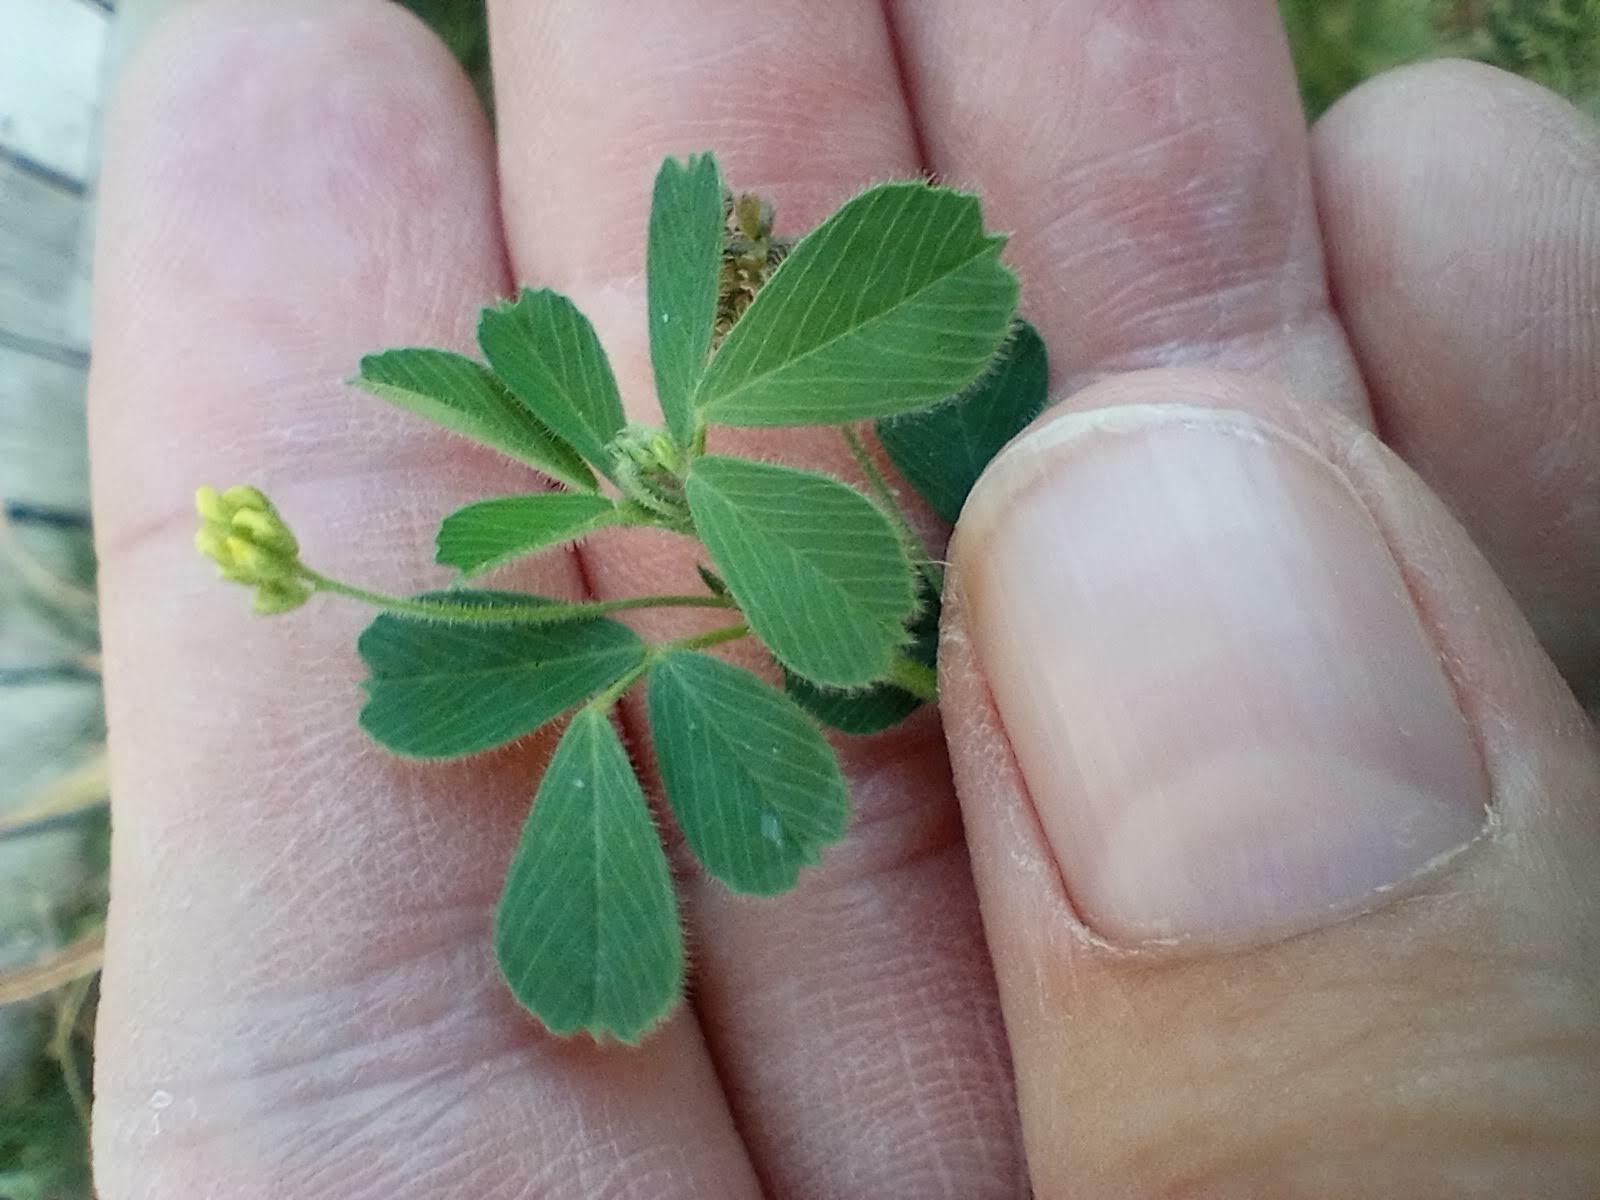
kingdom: Plantae
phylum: Tracheophyta
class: Magnoliopsida
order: Fabales
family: Fabaceae
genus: Medicago
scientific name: Medicago lupulina
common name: Black medick
